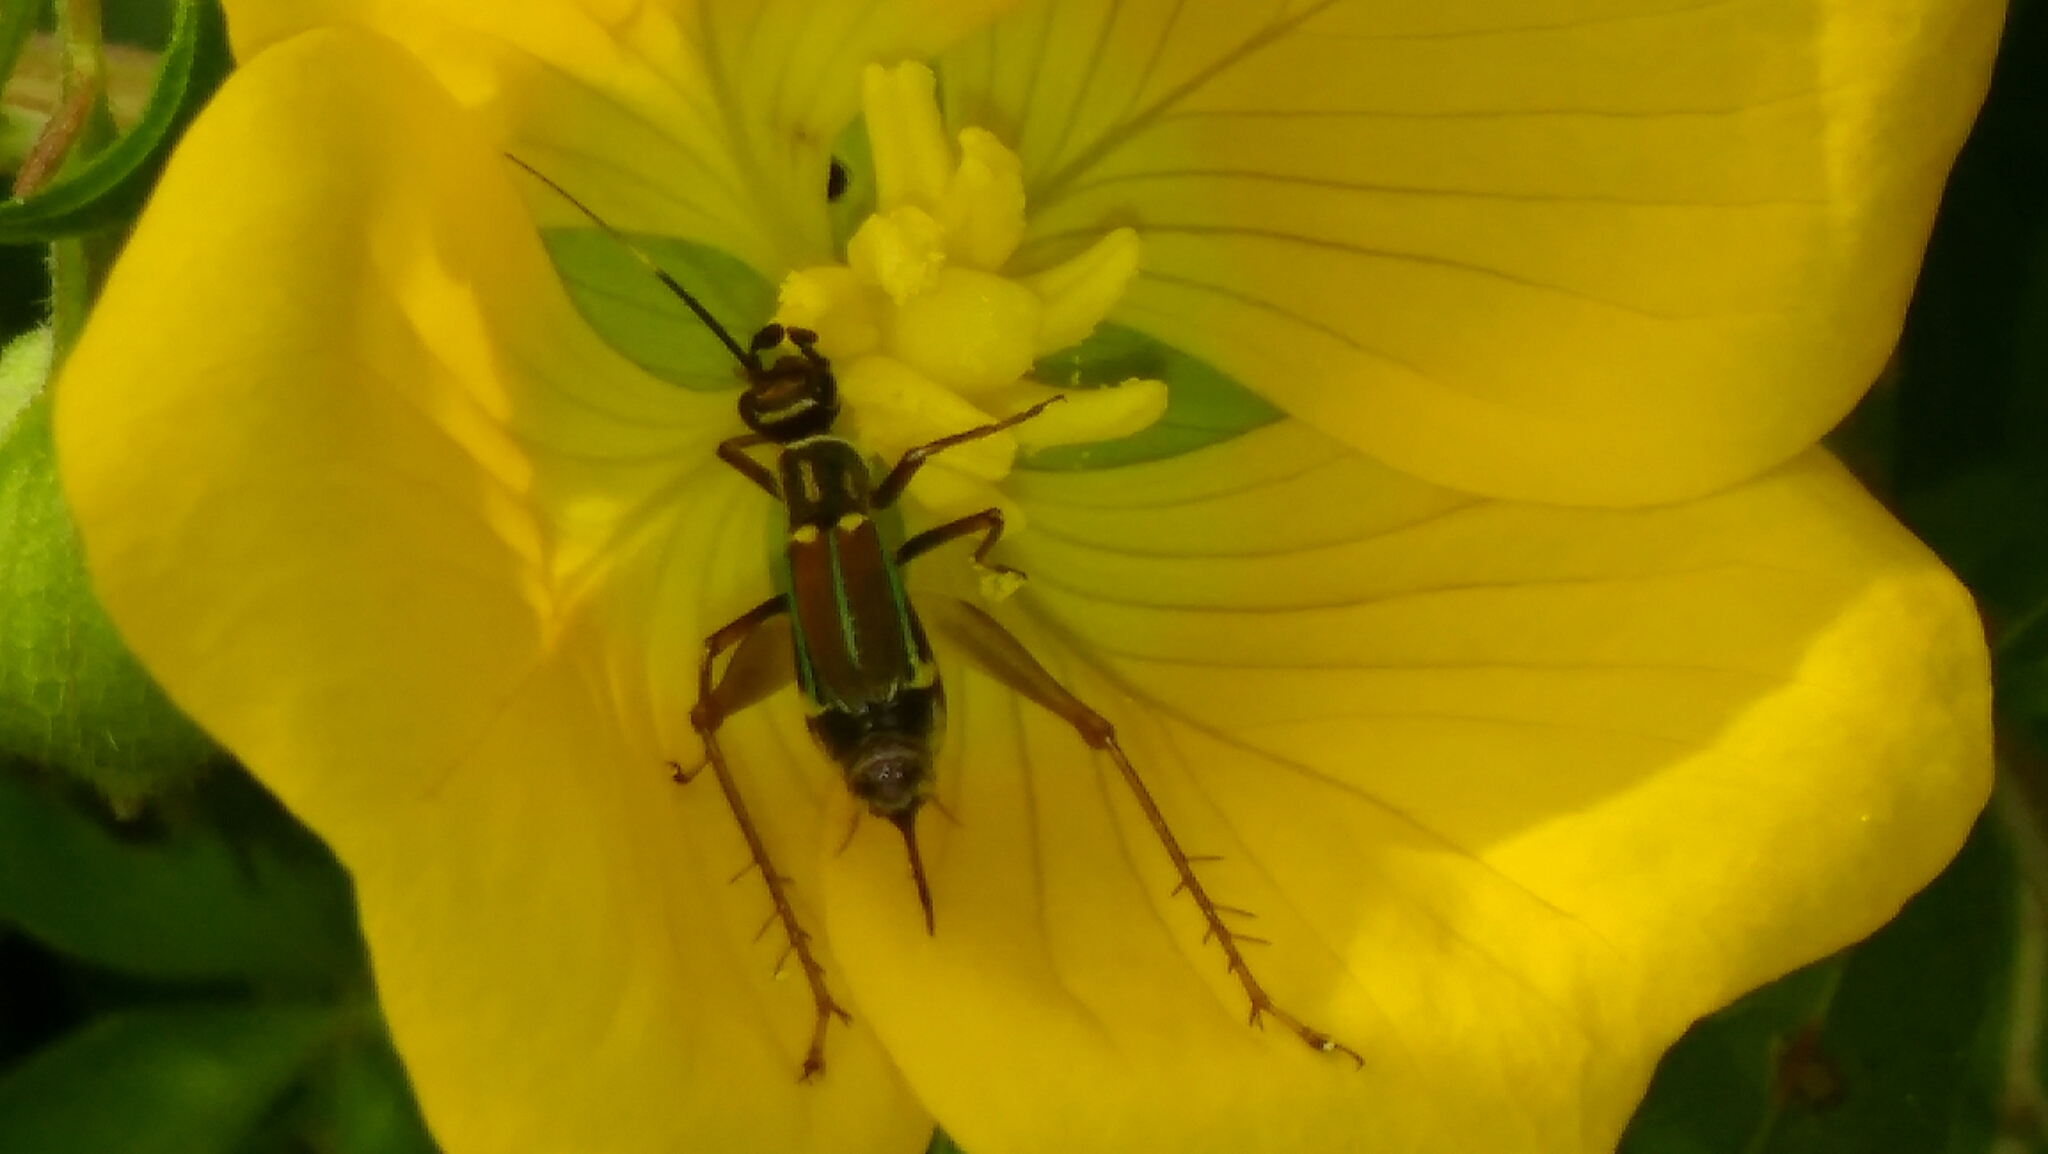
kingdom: Animalia
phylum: Arthropoda
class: Insecta
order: Orthoptera
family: Trigonidiidae
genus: Phylloscyrtus
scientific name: Phylloscyrtus amoenus
